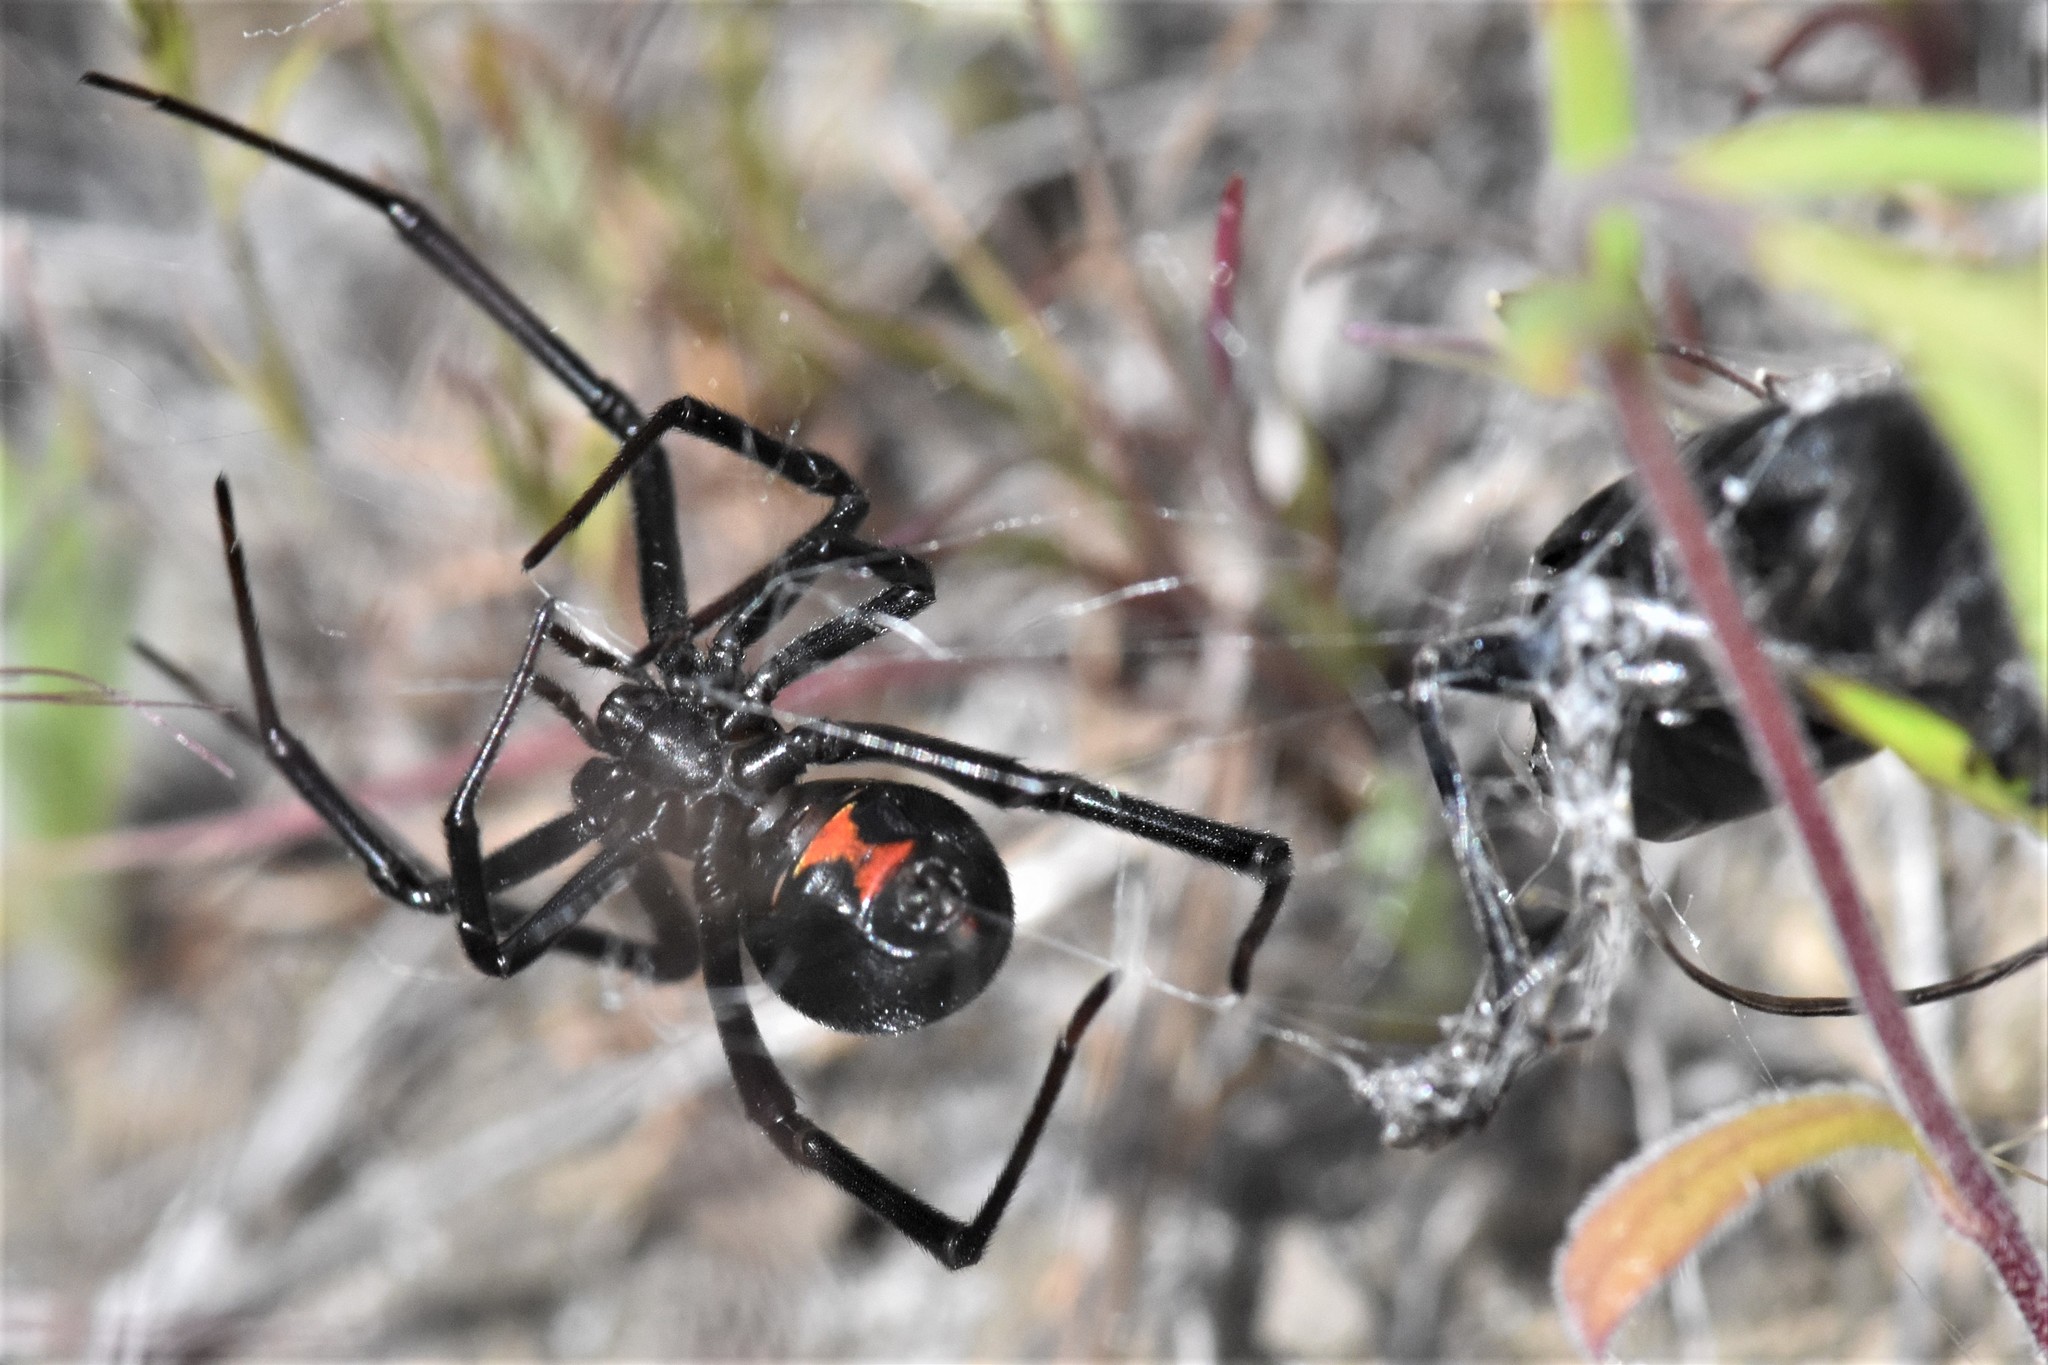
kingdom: Animalia
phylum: Arthropoda
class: Arachnida
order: Araneae
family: Theridiidae
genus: Latrodectus
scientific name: Latrodectus hesperus
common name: Western black widow
